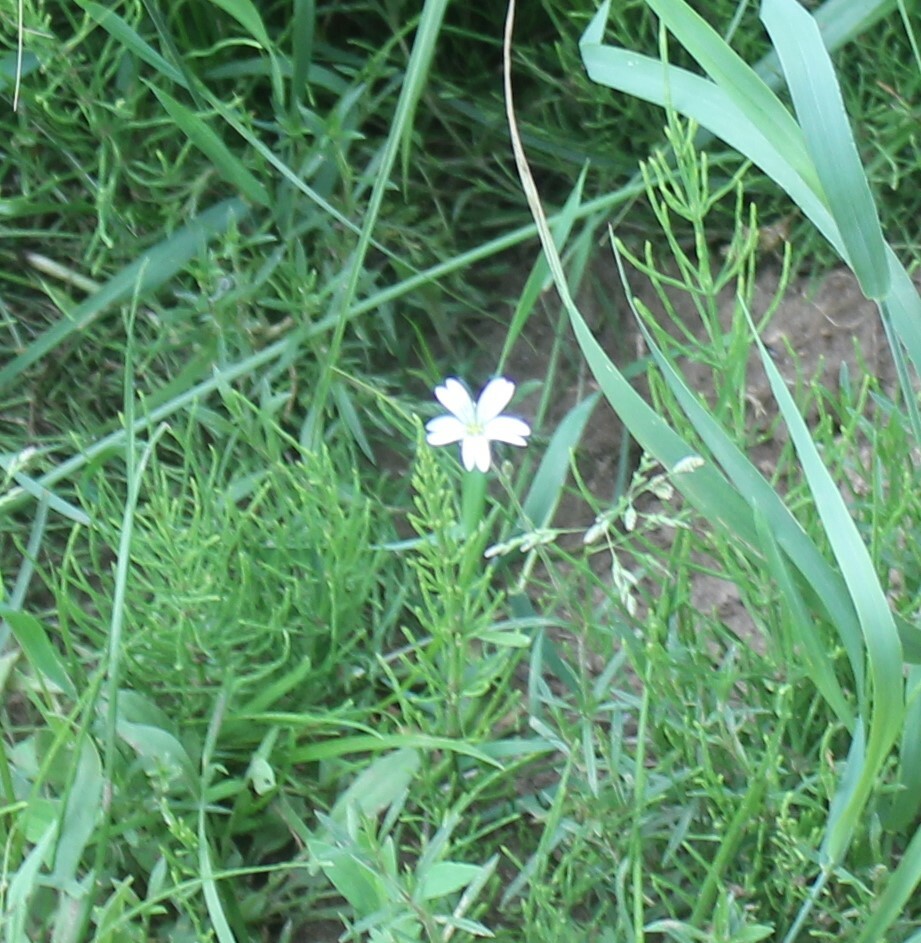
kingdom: Plantae
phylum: Tracheophyta
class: Magnoliopsida
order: Caryophyllales
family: Caryophyllaceae
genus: Cerastium
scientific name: Cerastium arvense
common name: Field mouse-ear
